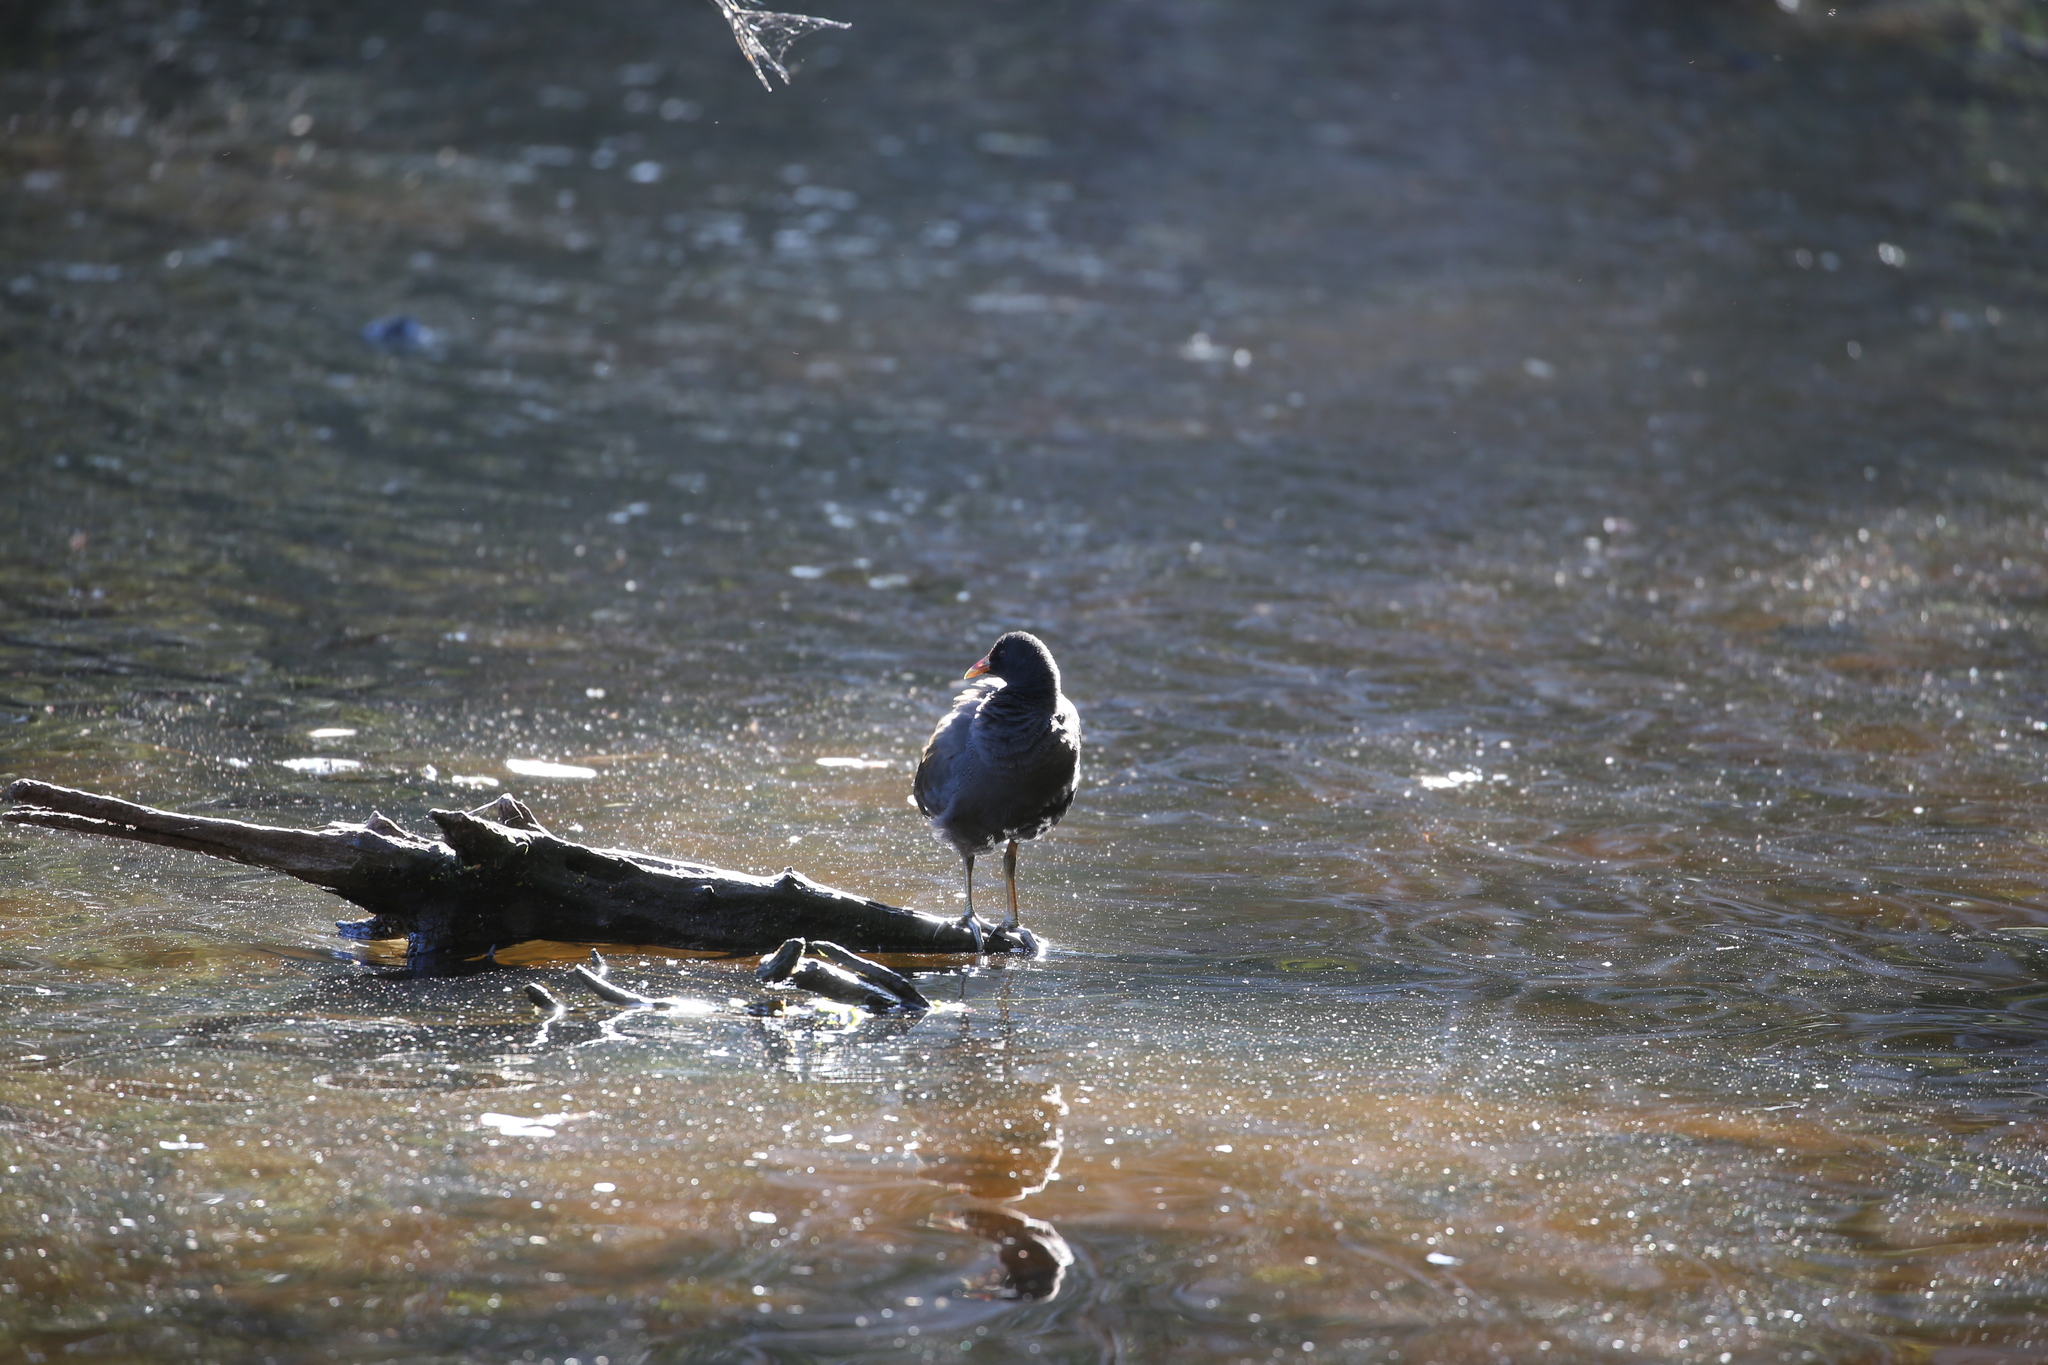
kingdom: Animalia
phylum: Chordata
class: Aves
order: Gruiformes
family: Rallidae
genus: Gallinula
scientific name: Gallinula tenebrosa
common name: Dusky moorhen
